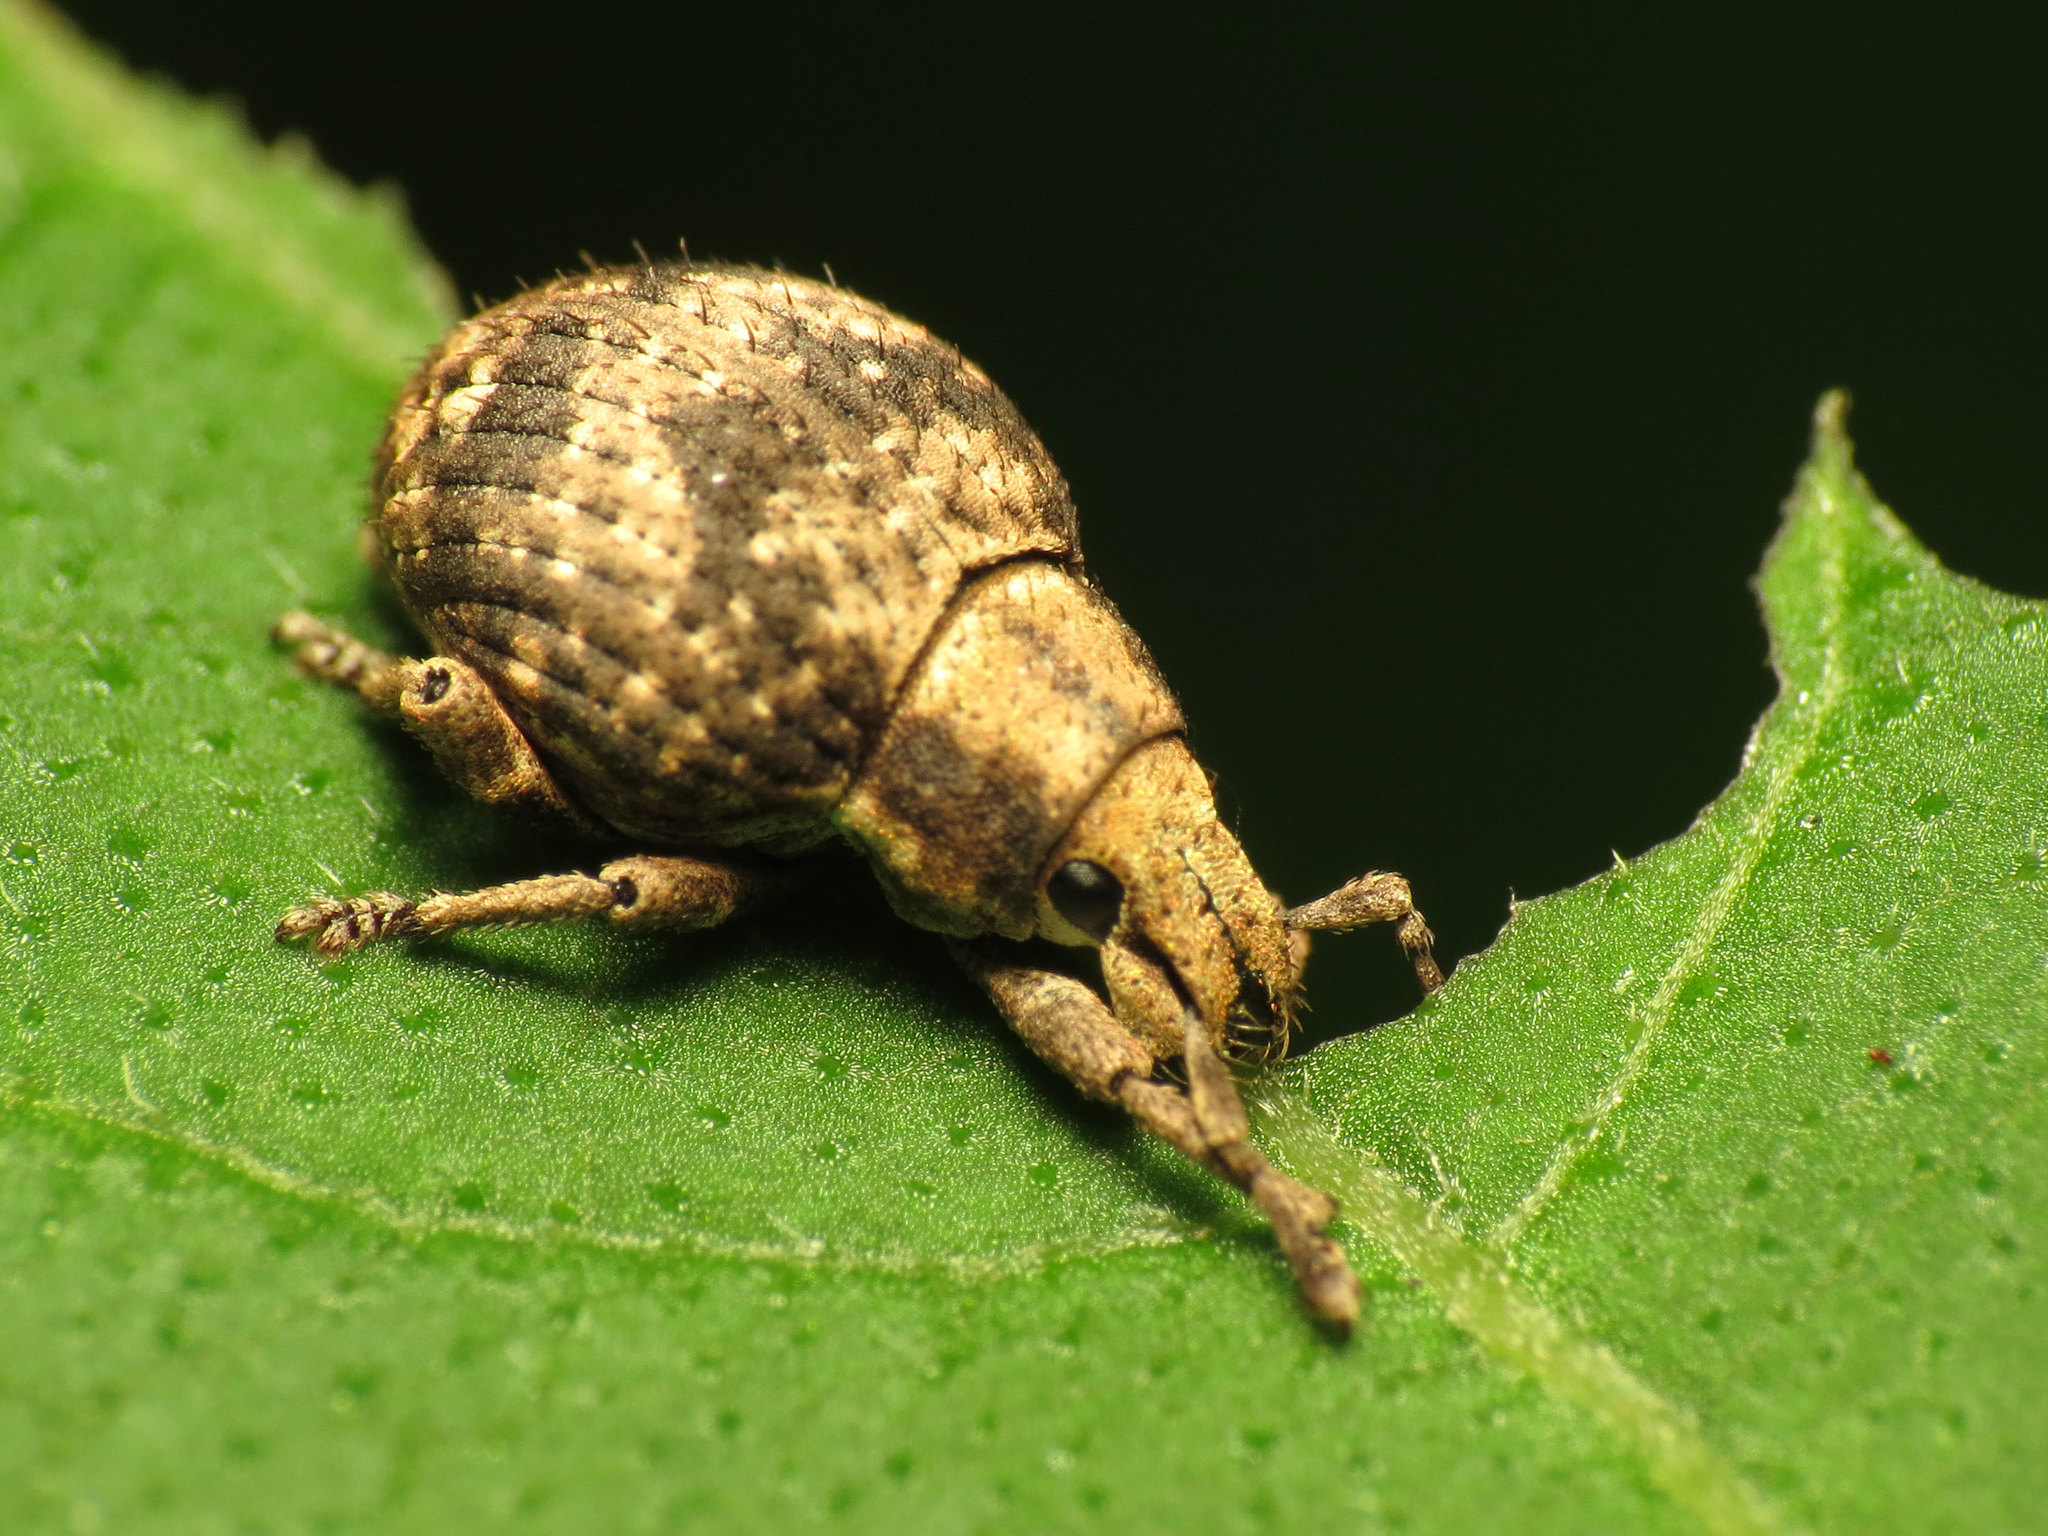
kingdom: Animalia
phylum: Arthropoda
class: Insecta
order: Coleoptera
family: Curculionidae
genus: Pseudocneorhinus
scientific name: Pseudocneorhinus bifasciatus
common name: Two-banded japanese weevil
